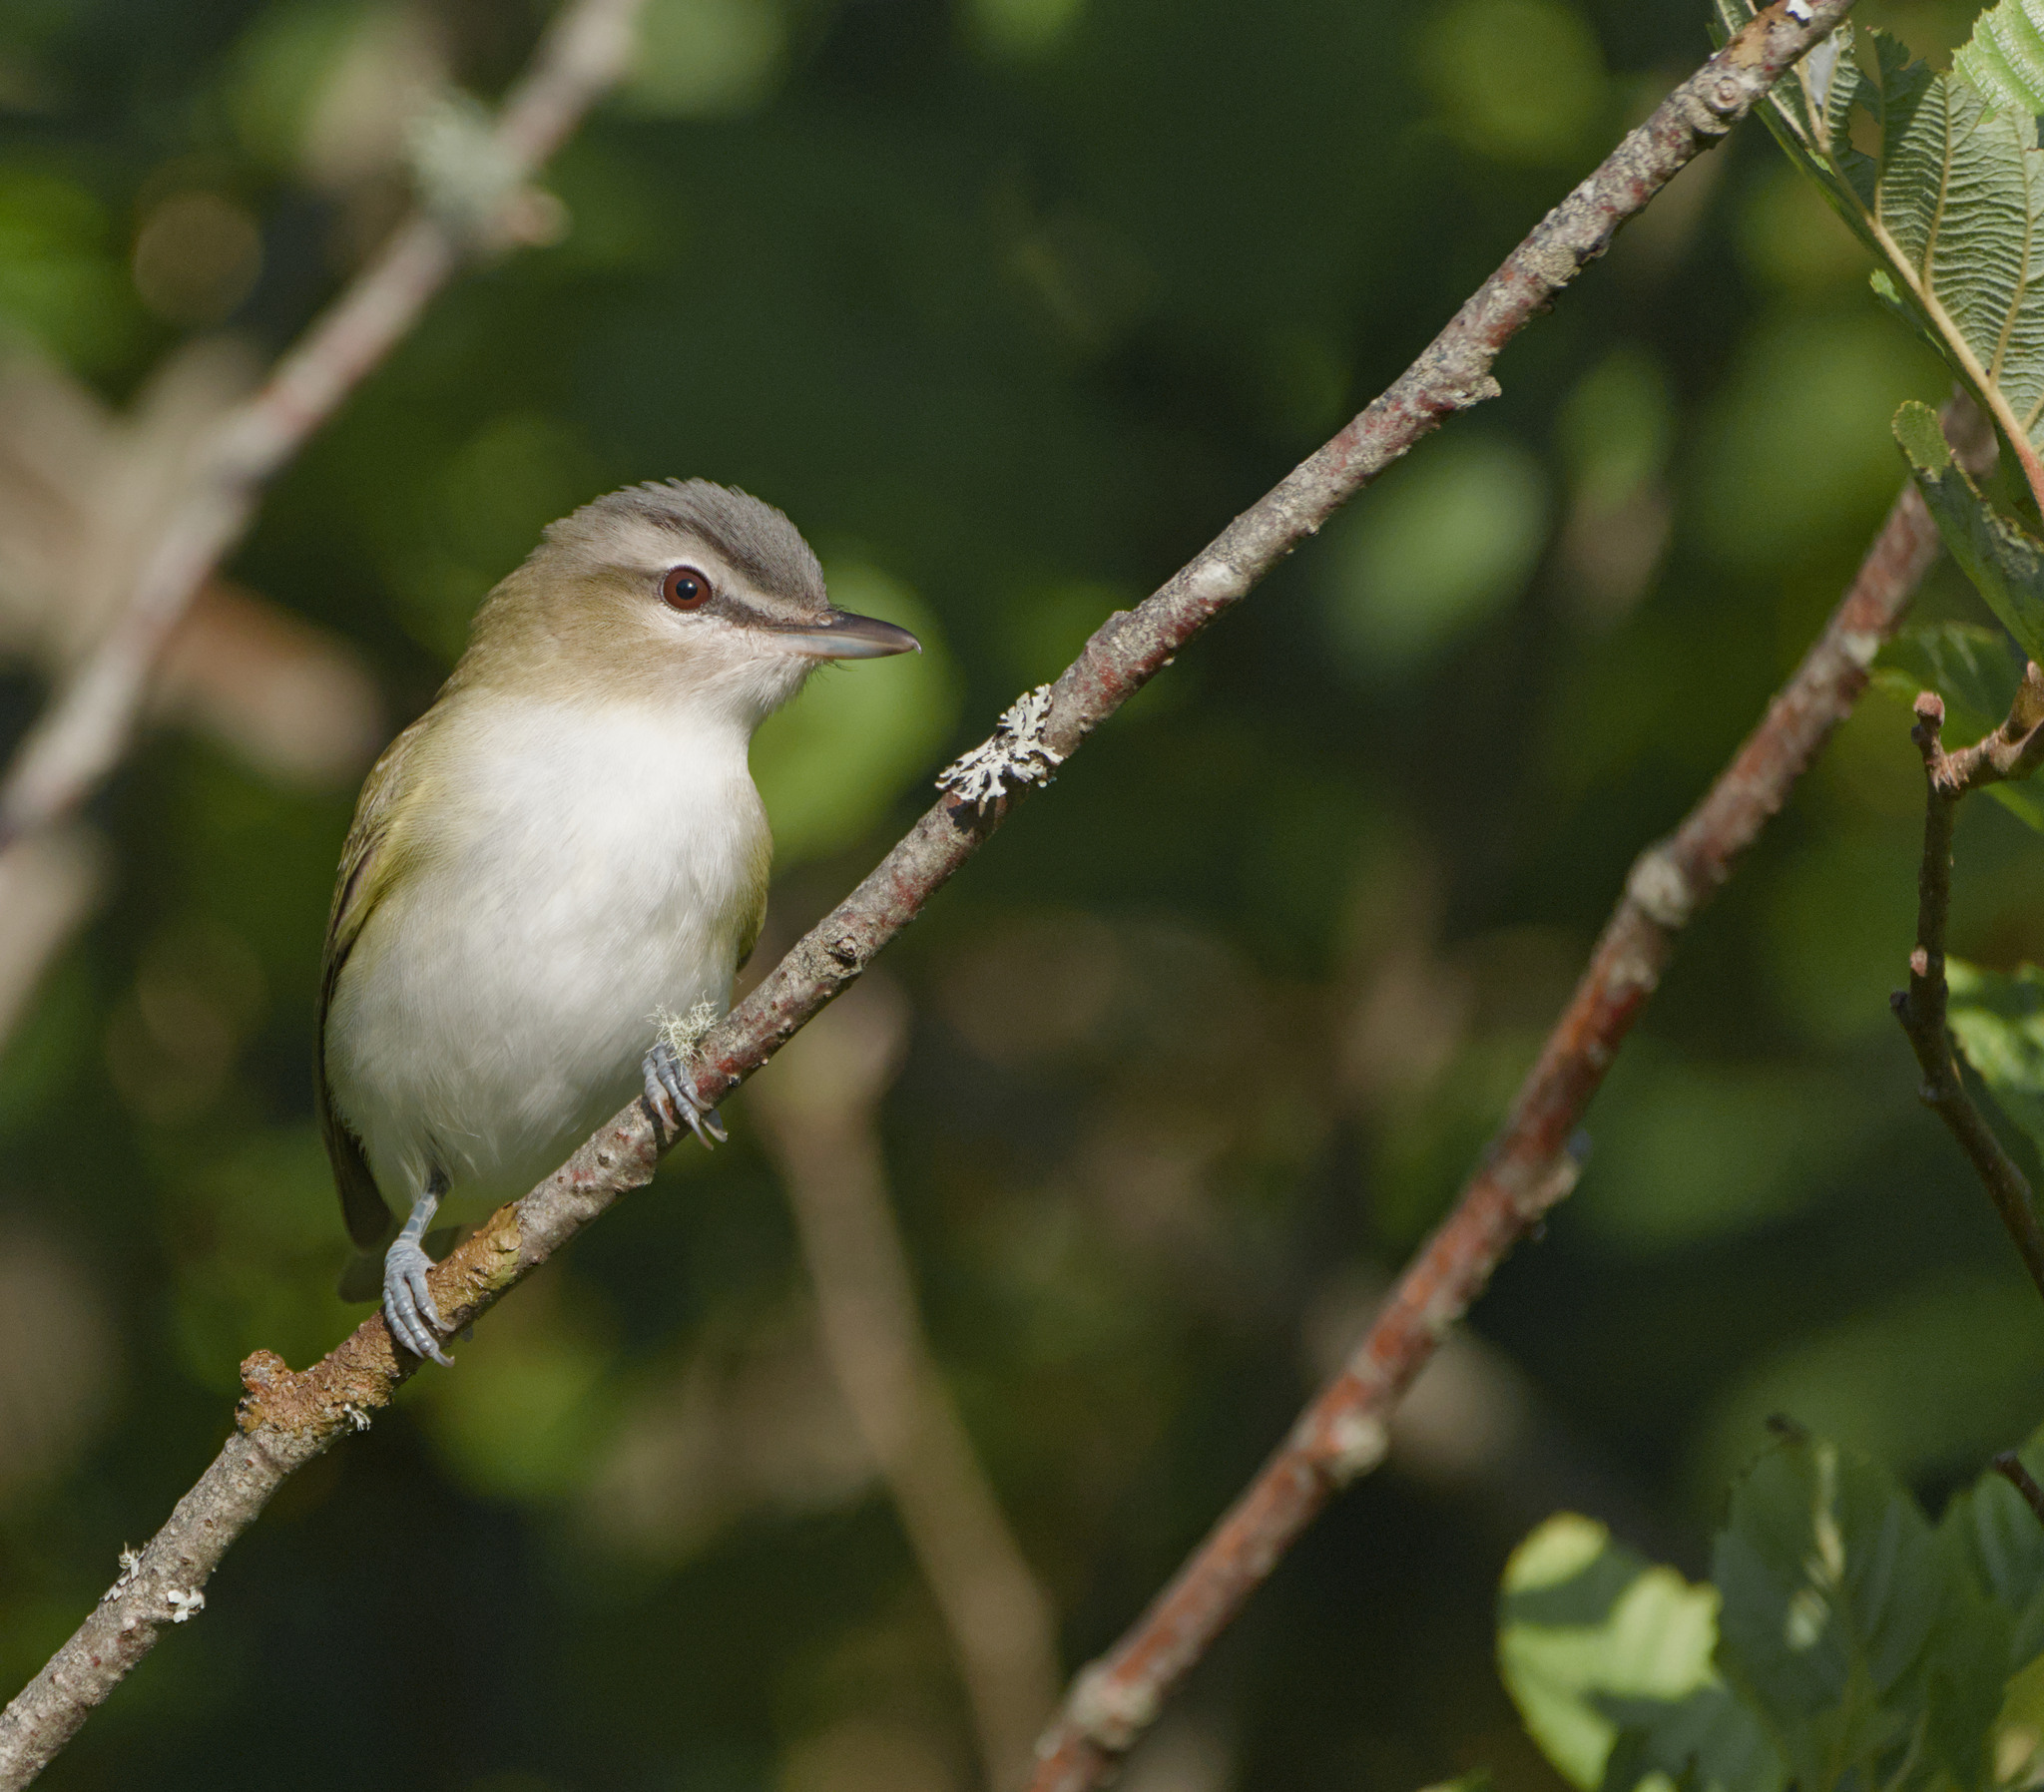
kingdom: Animalia
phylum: Chordata
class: Aves
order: Passeriformes
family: Vireonidae
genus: Vireo
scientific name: Vireo olivaceus
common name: Red-eyed vireo
